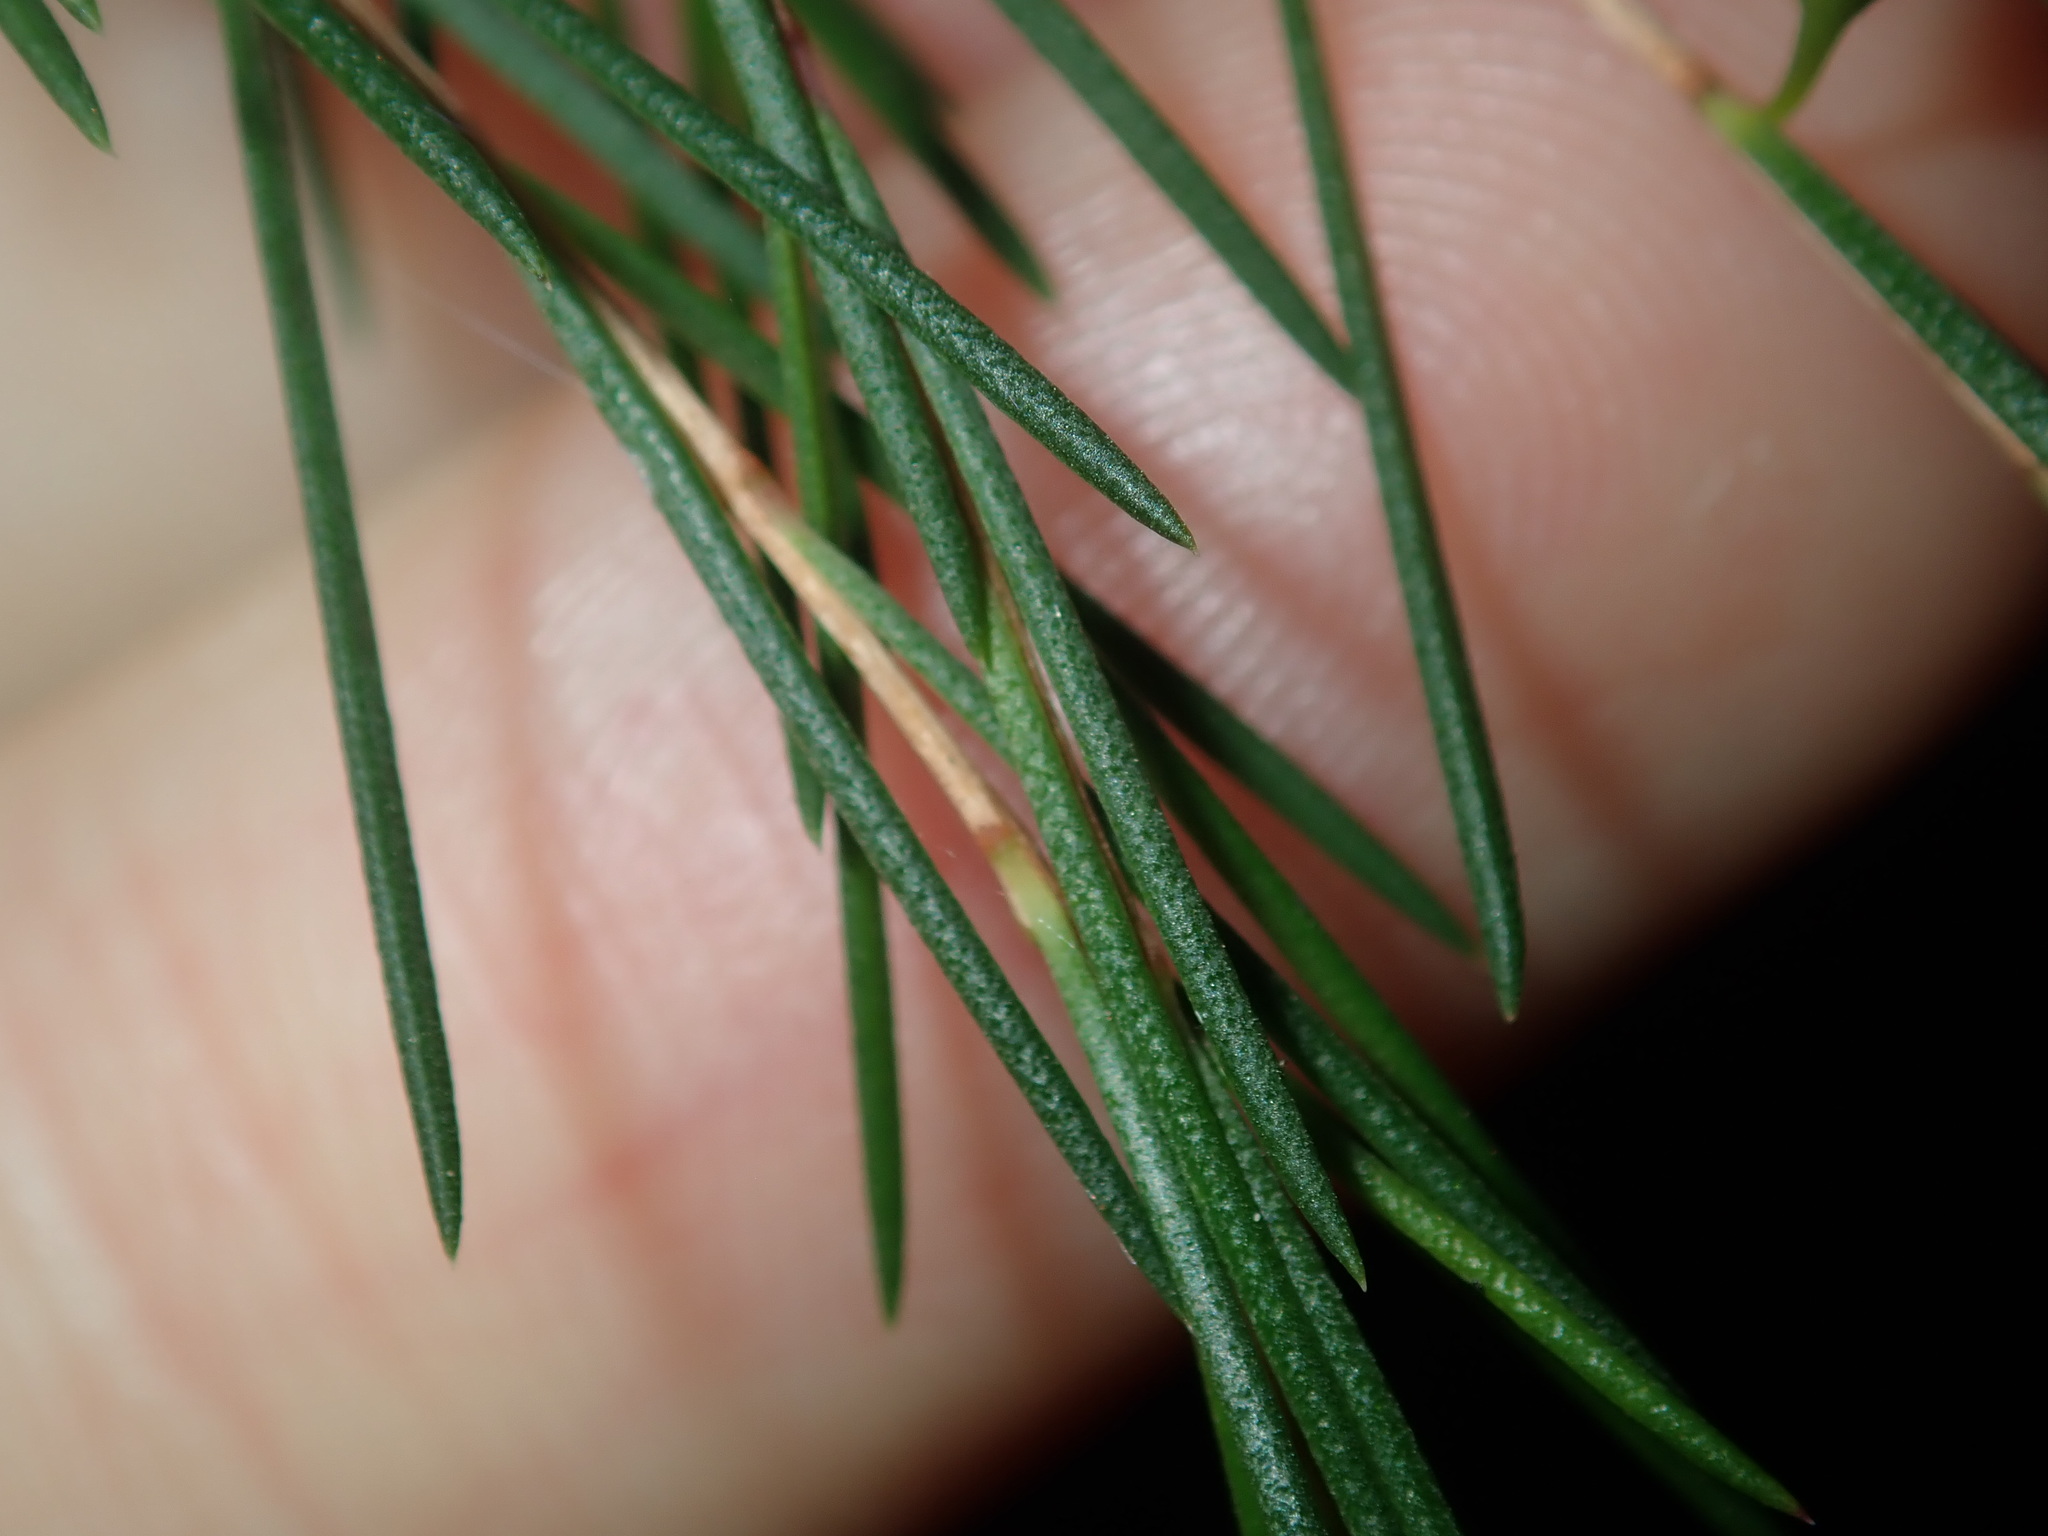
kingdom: Plantae
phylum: Tracheophyta
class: Magnoliopsida
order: Myrtales
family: Myrtaceae
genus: Baeckea
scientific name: Baeckea linifolia
